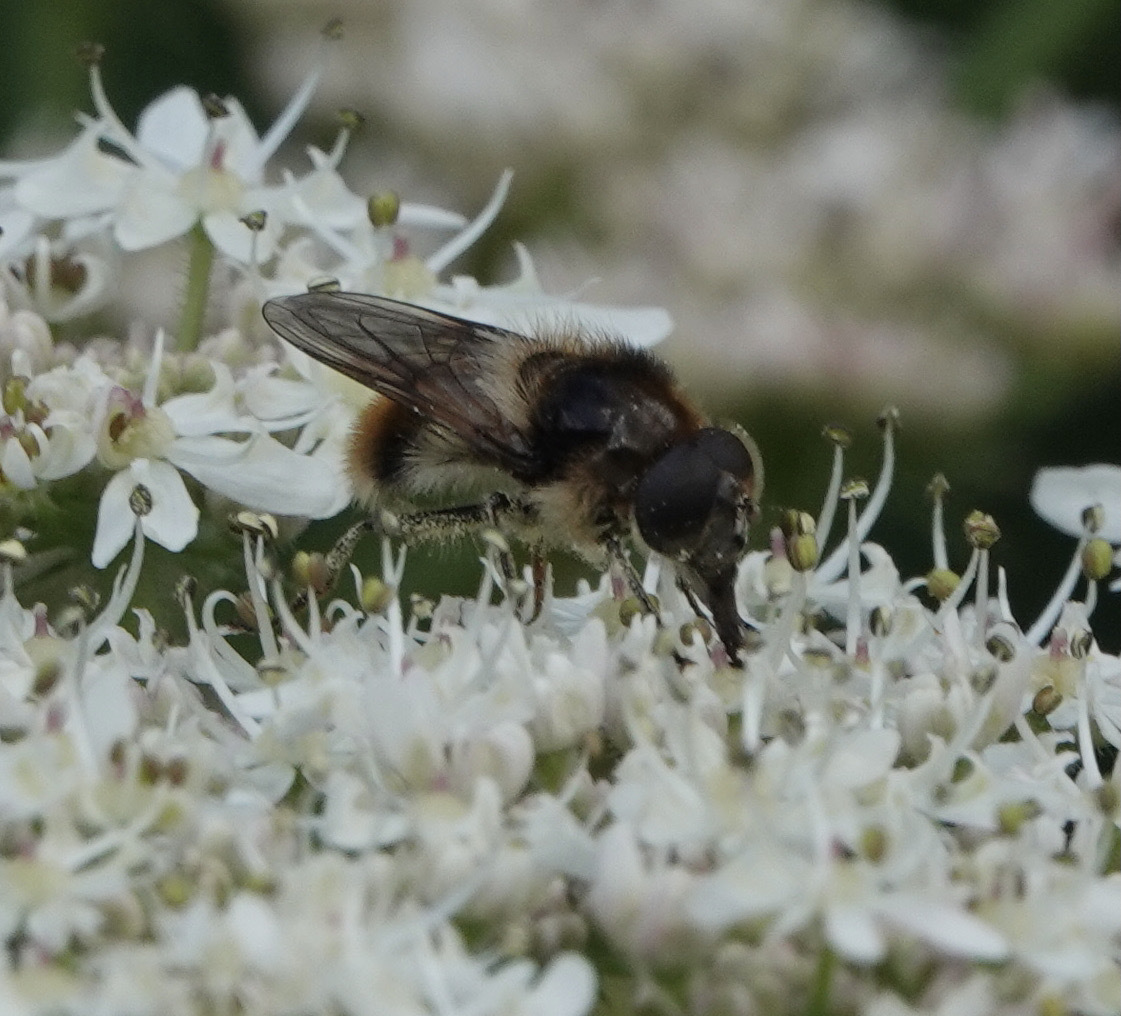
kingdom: Animalia
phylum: Arthropoda
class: Insecta
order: Diptera
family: Syrphidae
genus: Cheilosia
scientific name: Cheilosia illustrata
